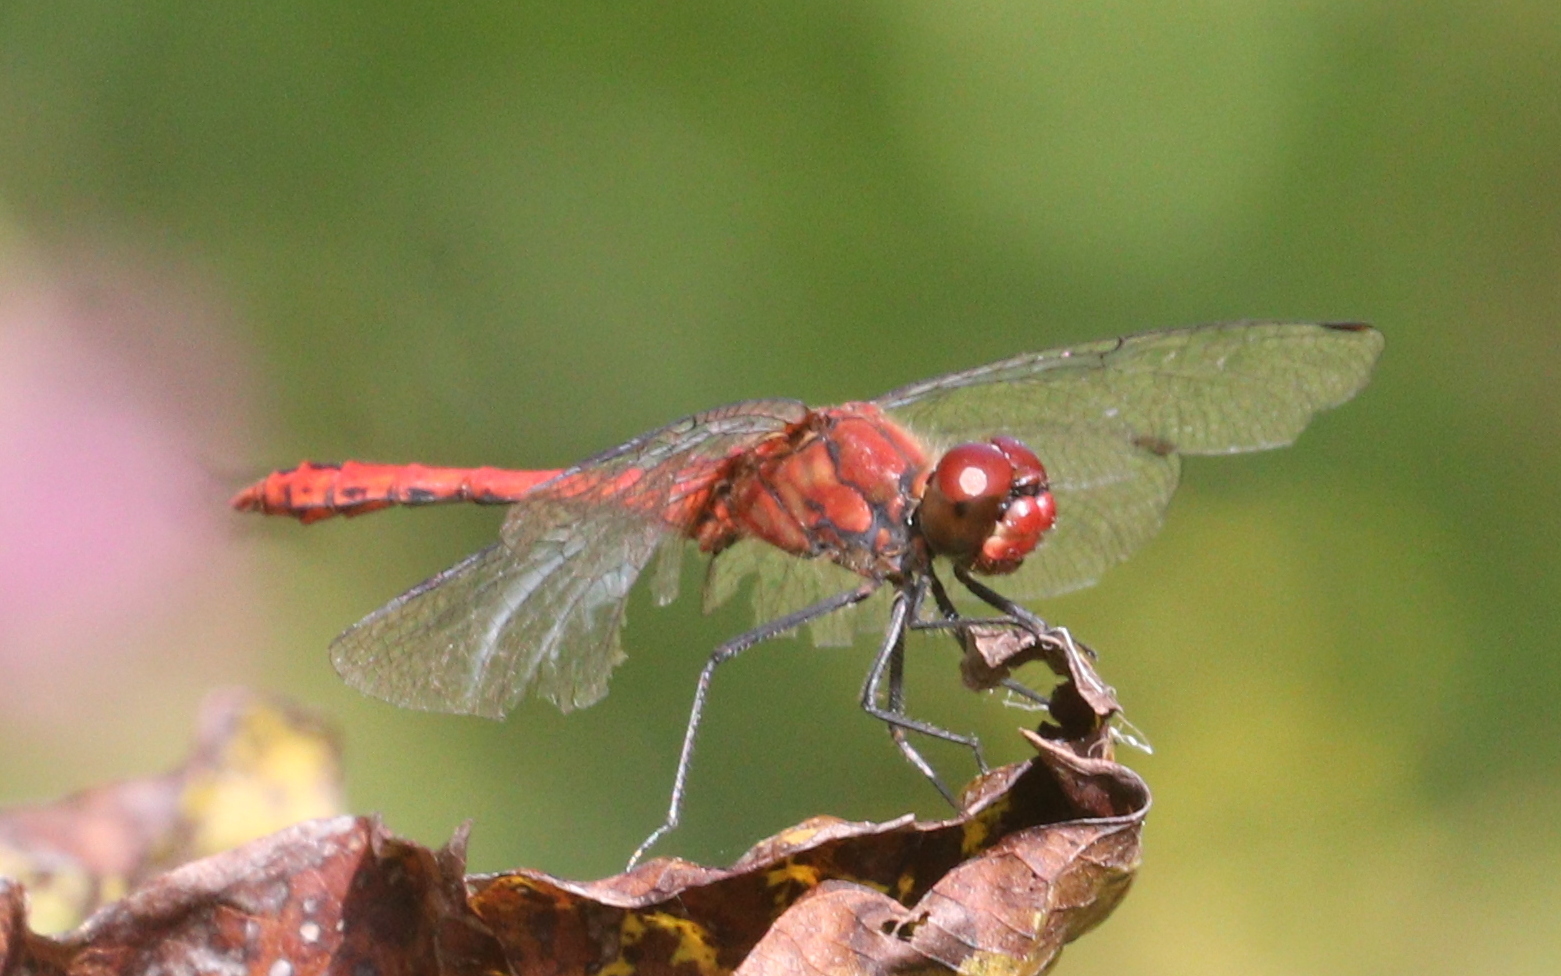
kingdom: Animalia
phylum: Arthropoda
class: Insecta
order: Odonata
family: Libellulidae
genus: Sympetrum
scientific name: Sympetrum sanguineum
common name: Ruddy darter
